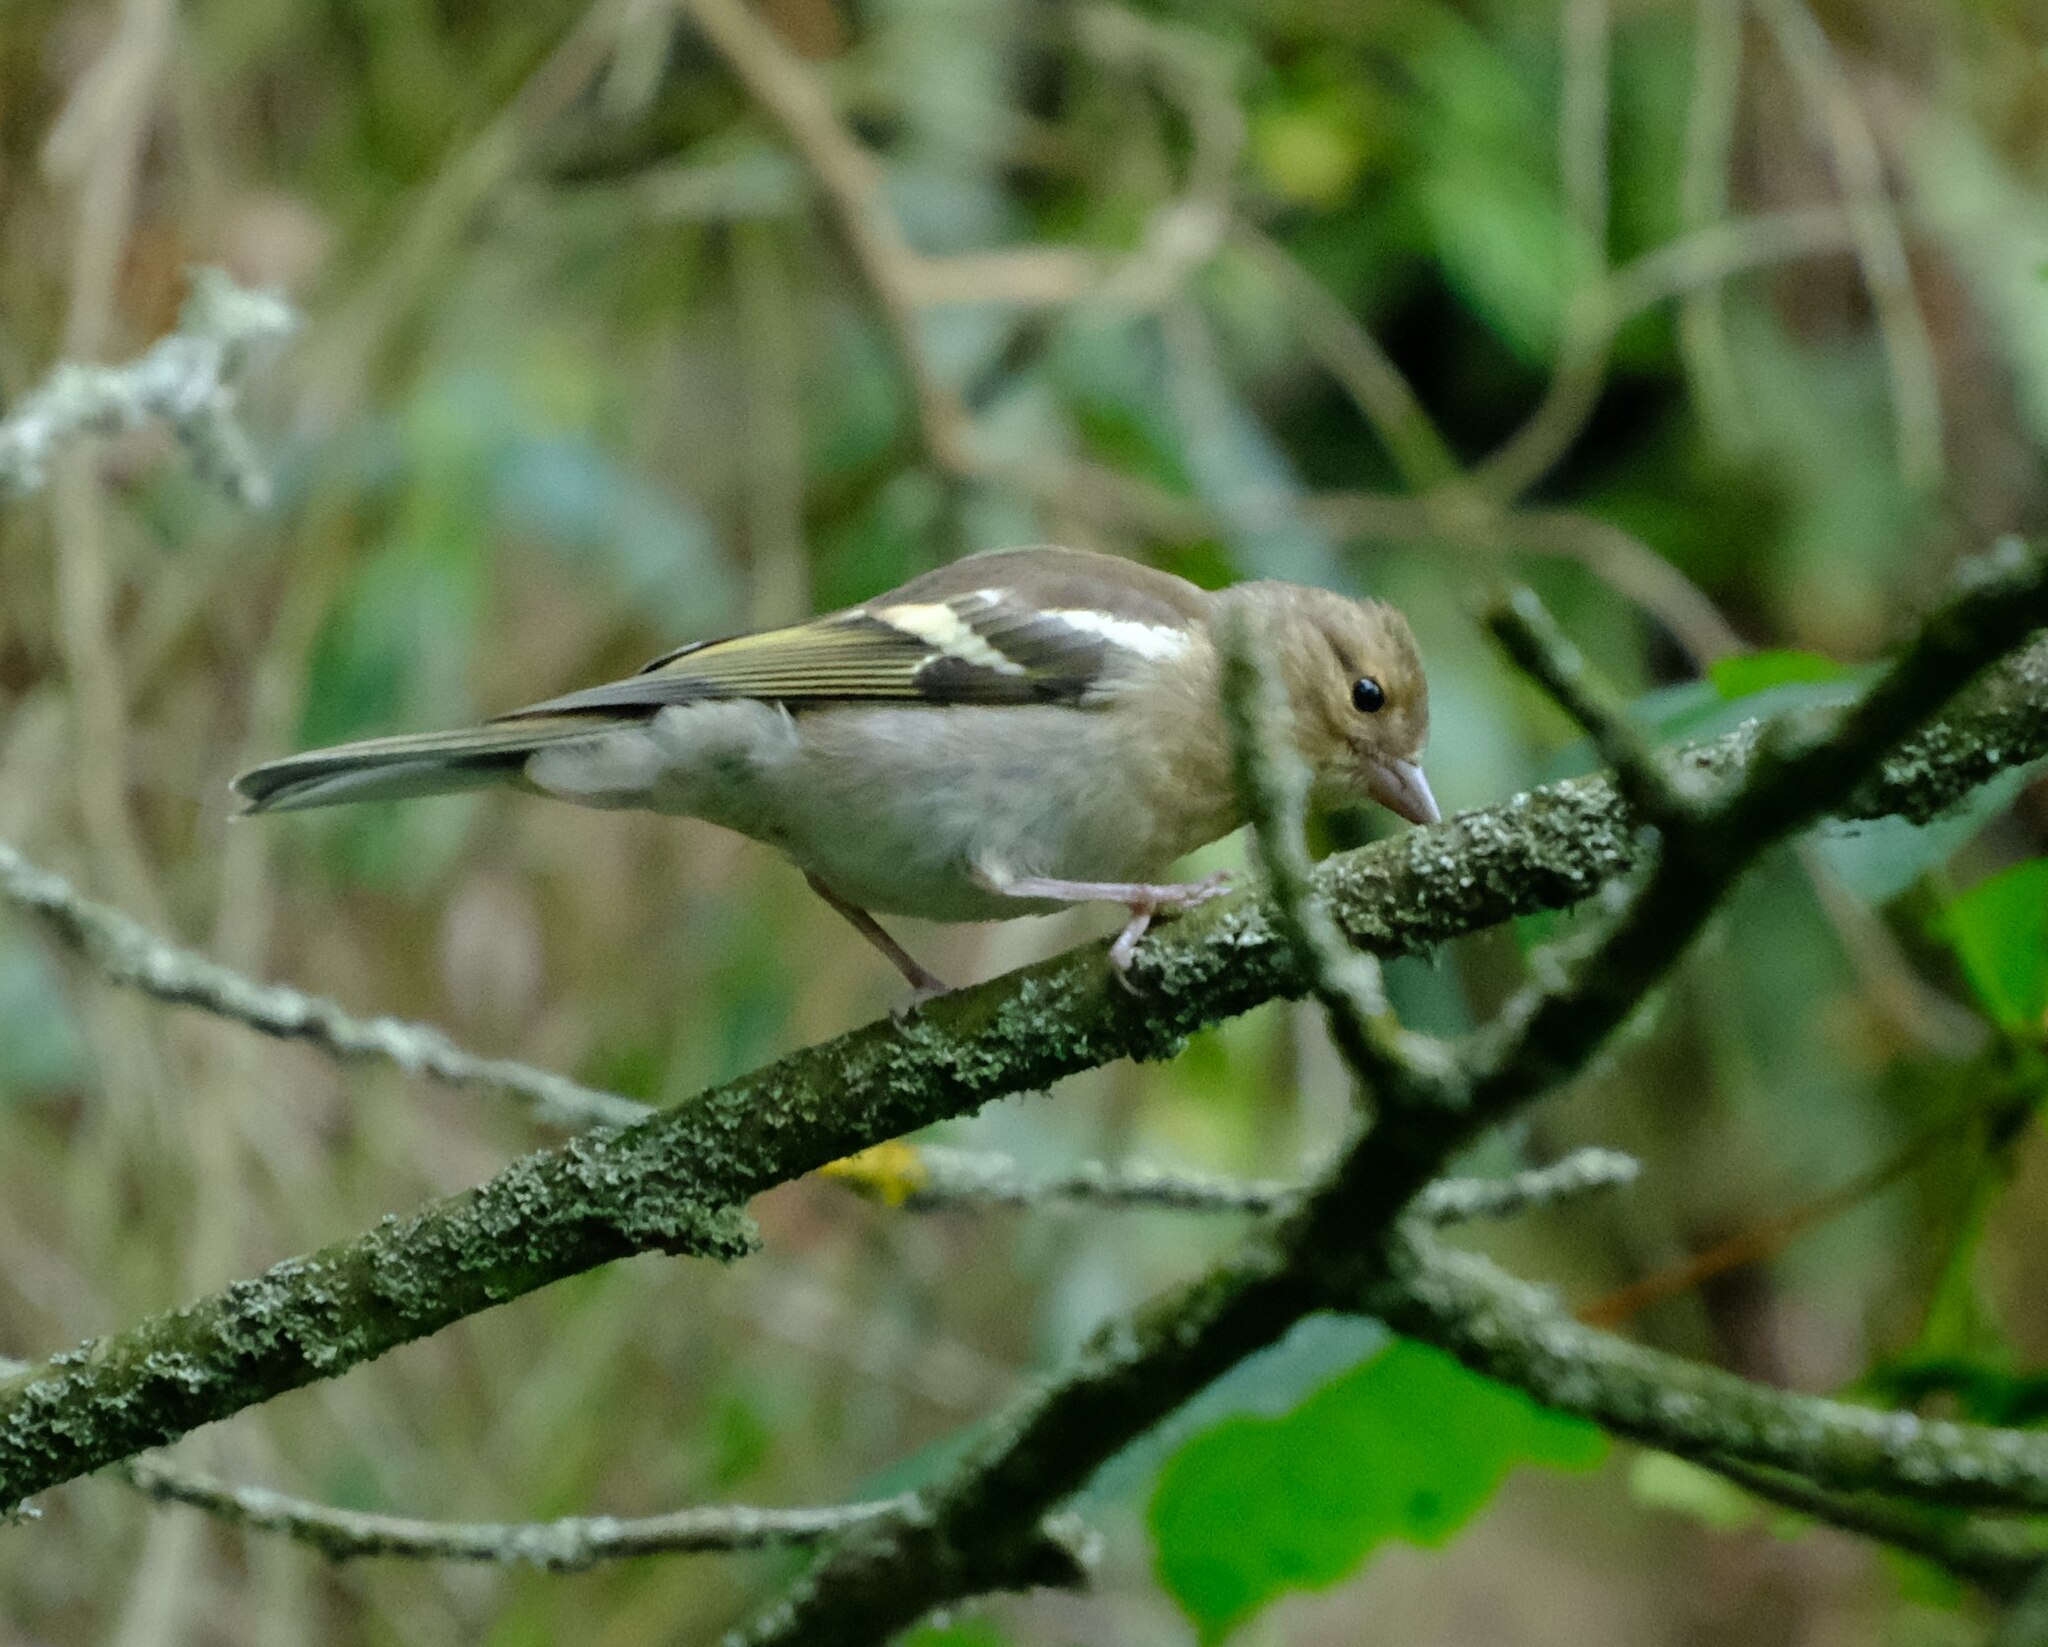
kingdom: Animalia
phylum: Chordata
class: Aves
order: Passeriformes
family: Fringillidae
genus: Fringilla
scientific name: Fringilla coelebs
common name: Common chaffinch
